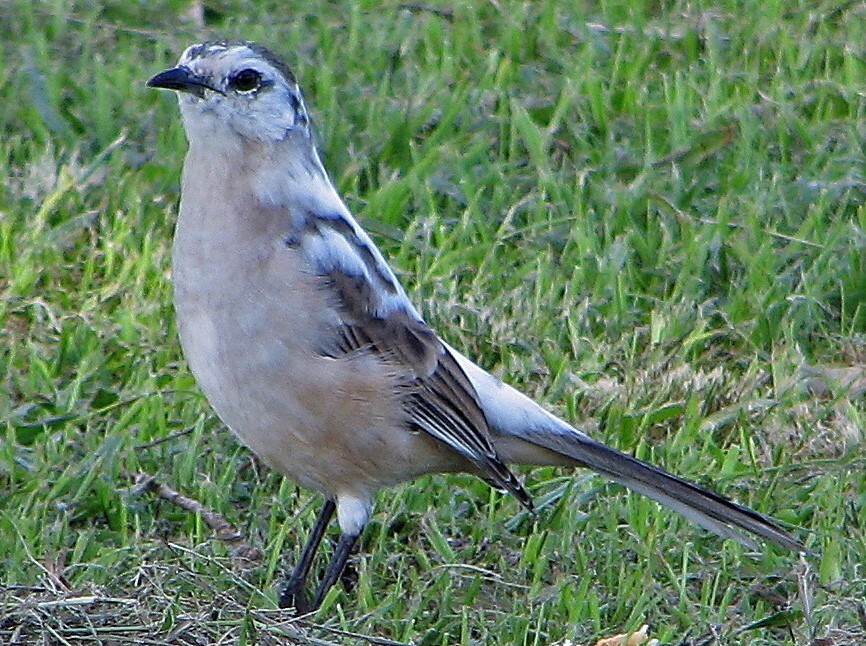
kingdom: Animalia
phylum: Chordata
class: Aves
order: Passeriformes
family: Mimidae
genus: Mimus
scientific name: Mimus saturninus
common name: Chalk-browed mockingbird
